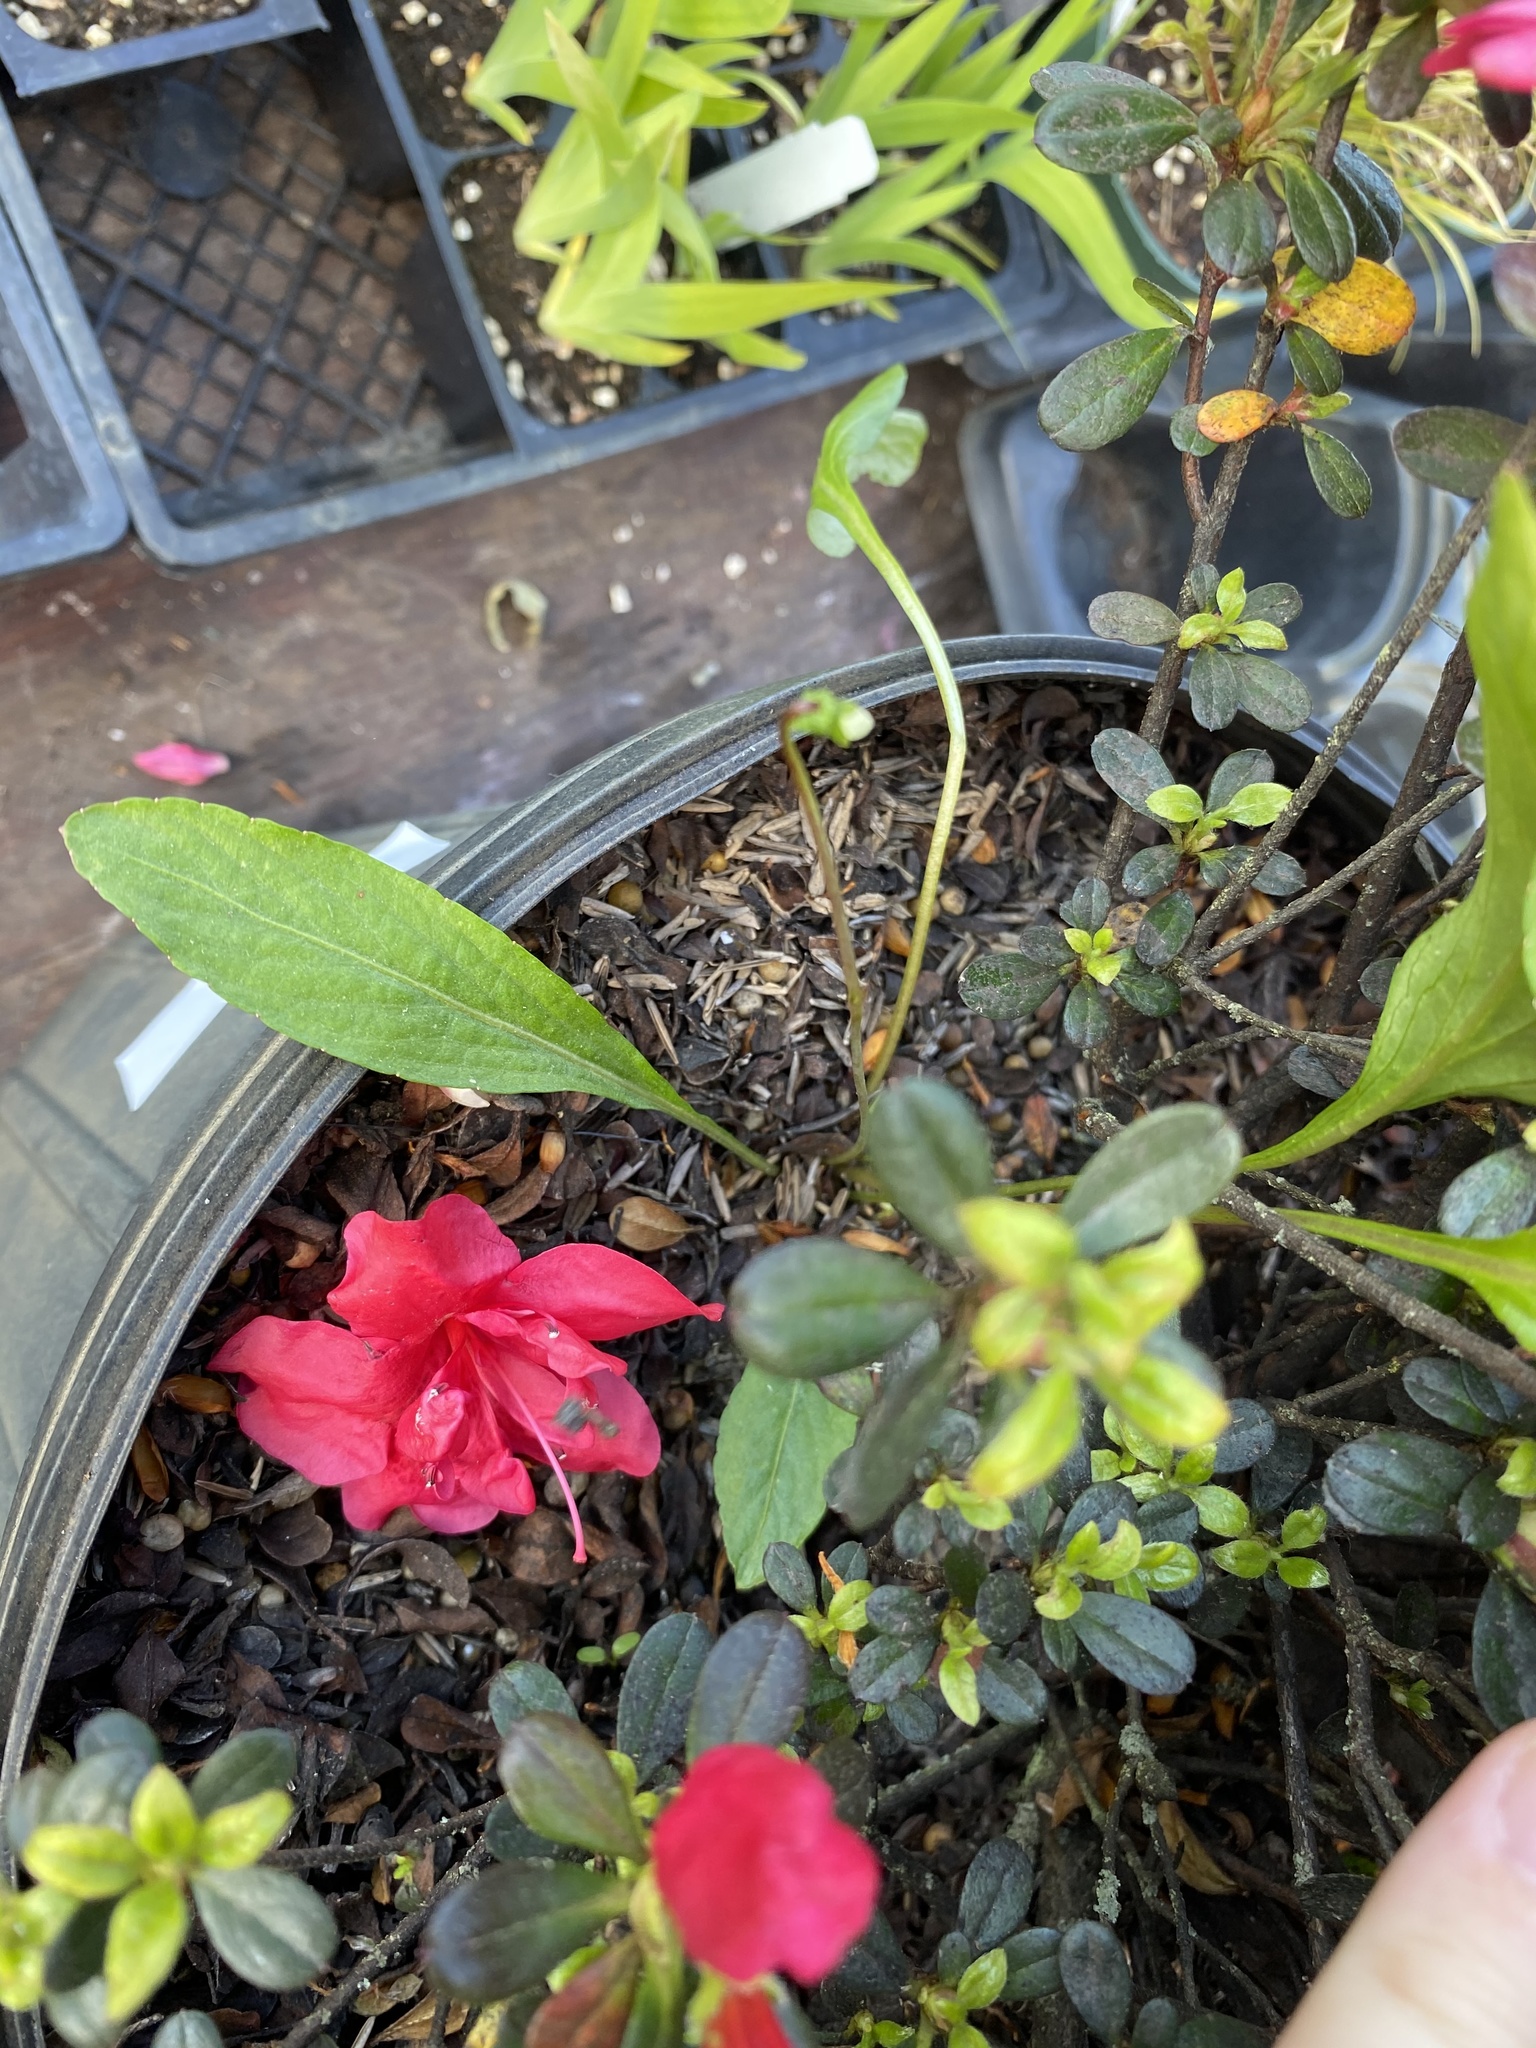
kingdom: Plantae
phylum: Tracheophyta
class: Magnoliopsida
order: Malpighiales
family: Violaceae
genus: Viola
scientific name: Viola lanceolata
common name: Bog white violet
